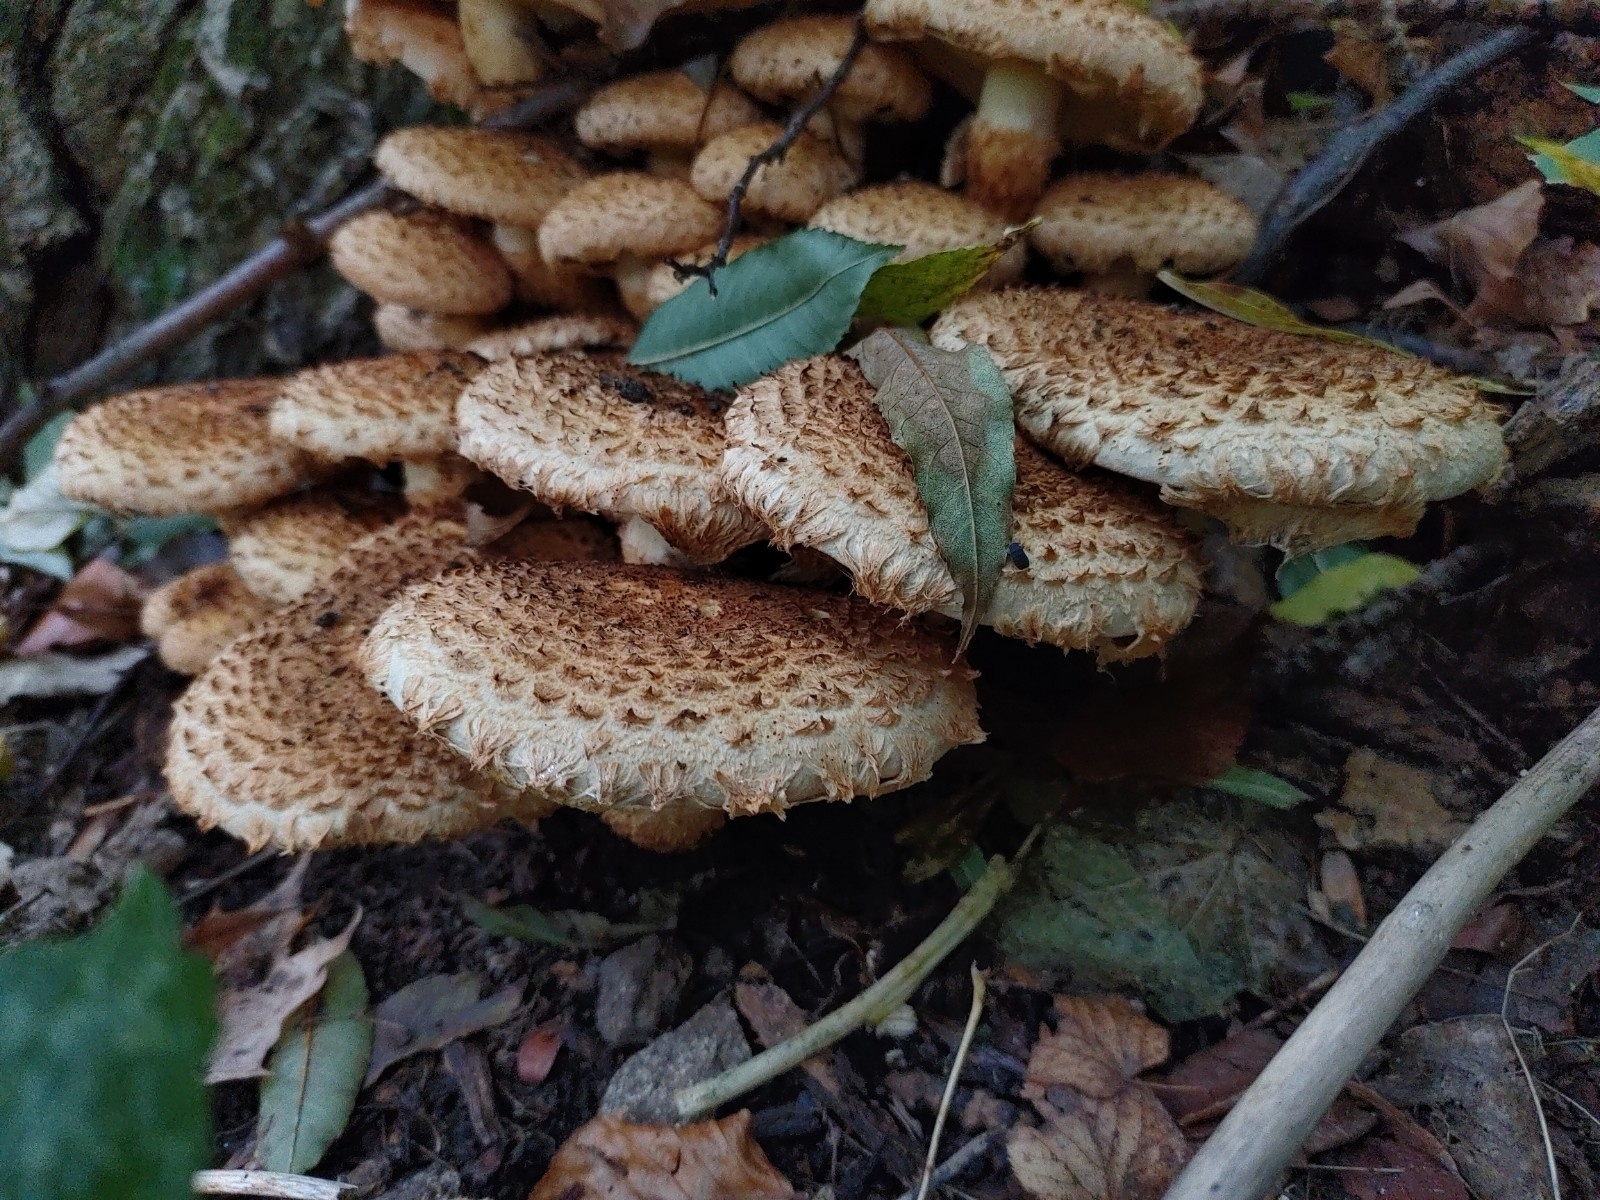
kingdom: Fungi
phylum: Basidiomycota
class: Agaricomycetes
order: Agaricales
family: Strophariaceae
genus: Pholiota
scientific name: Pholiota squarrosa
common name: Shaggy pholiota
